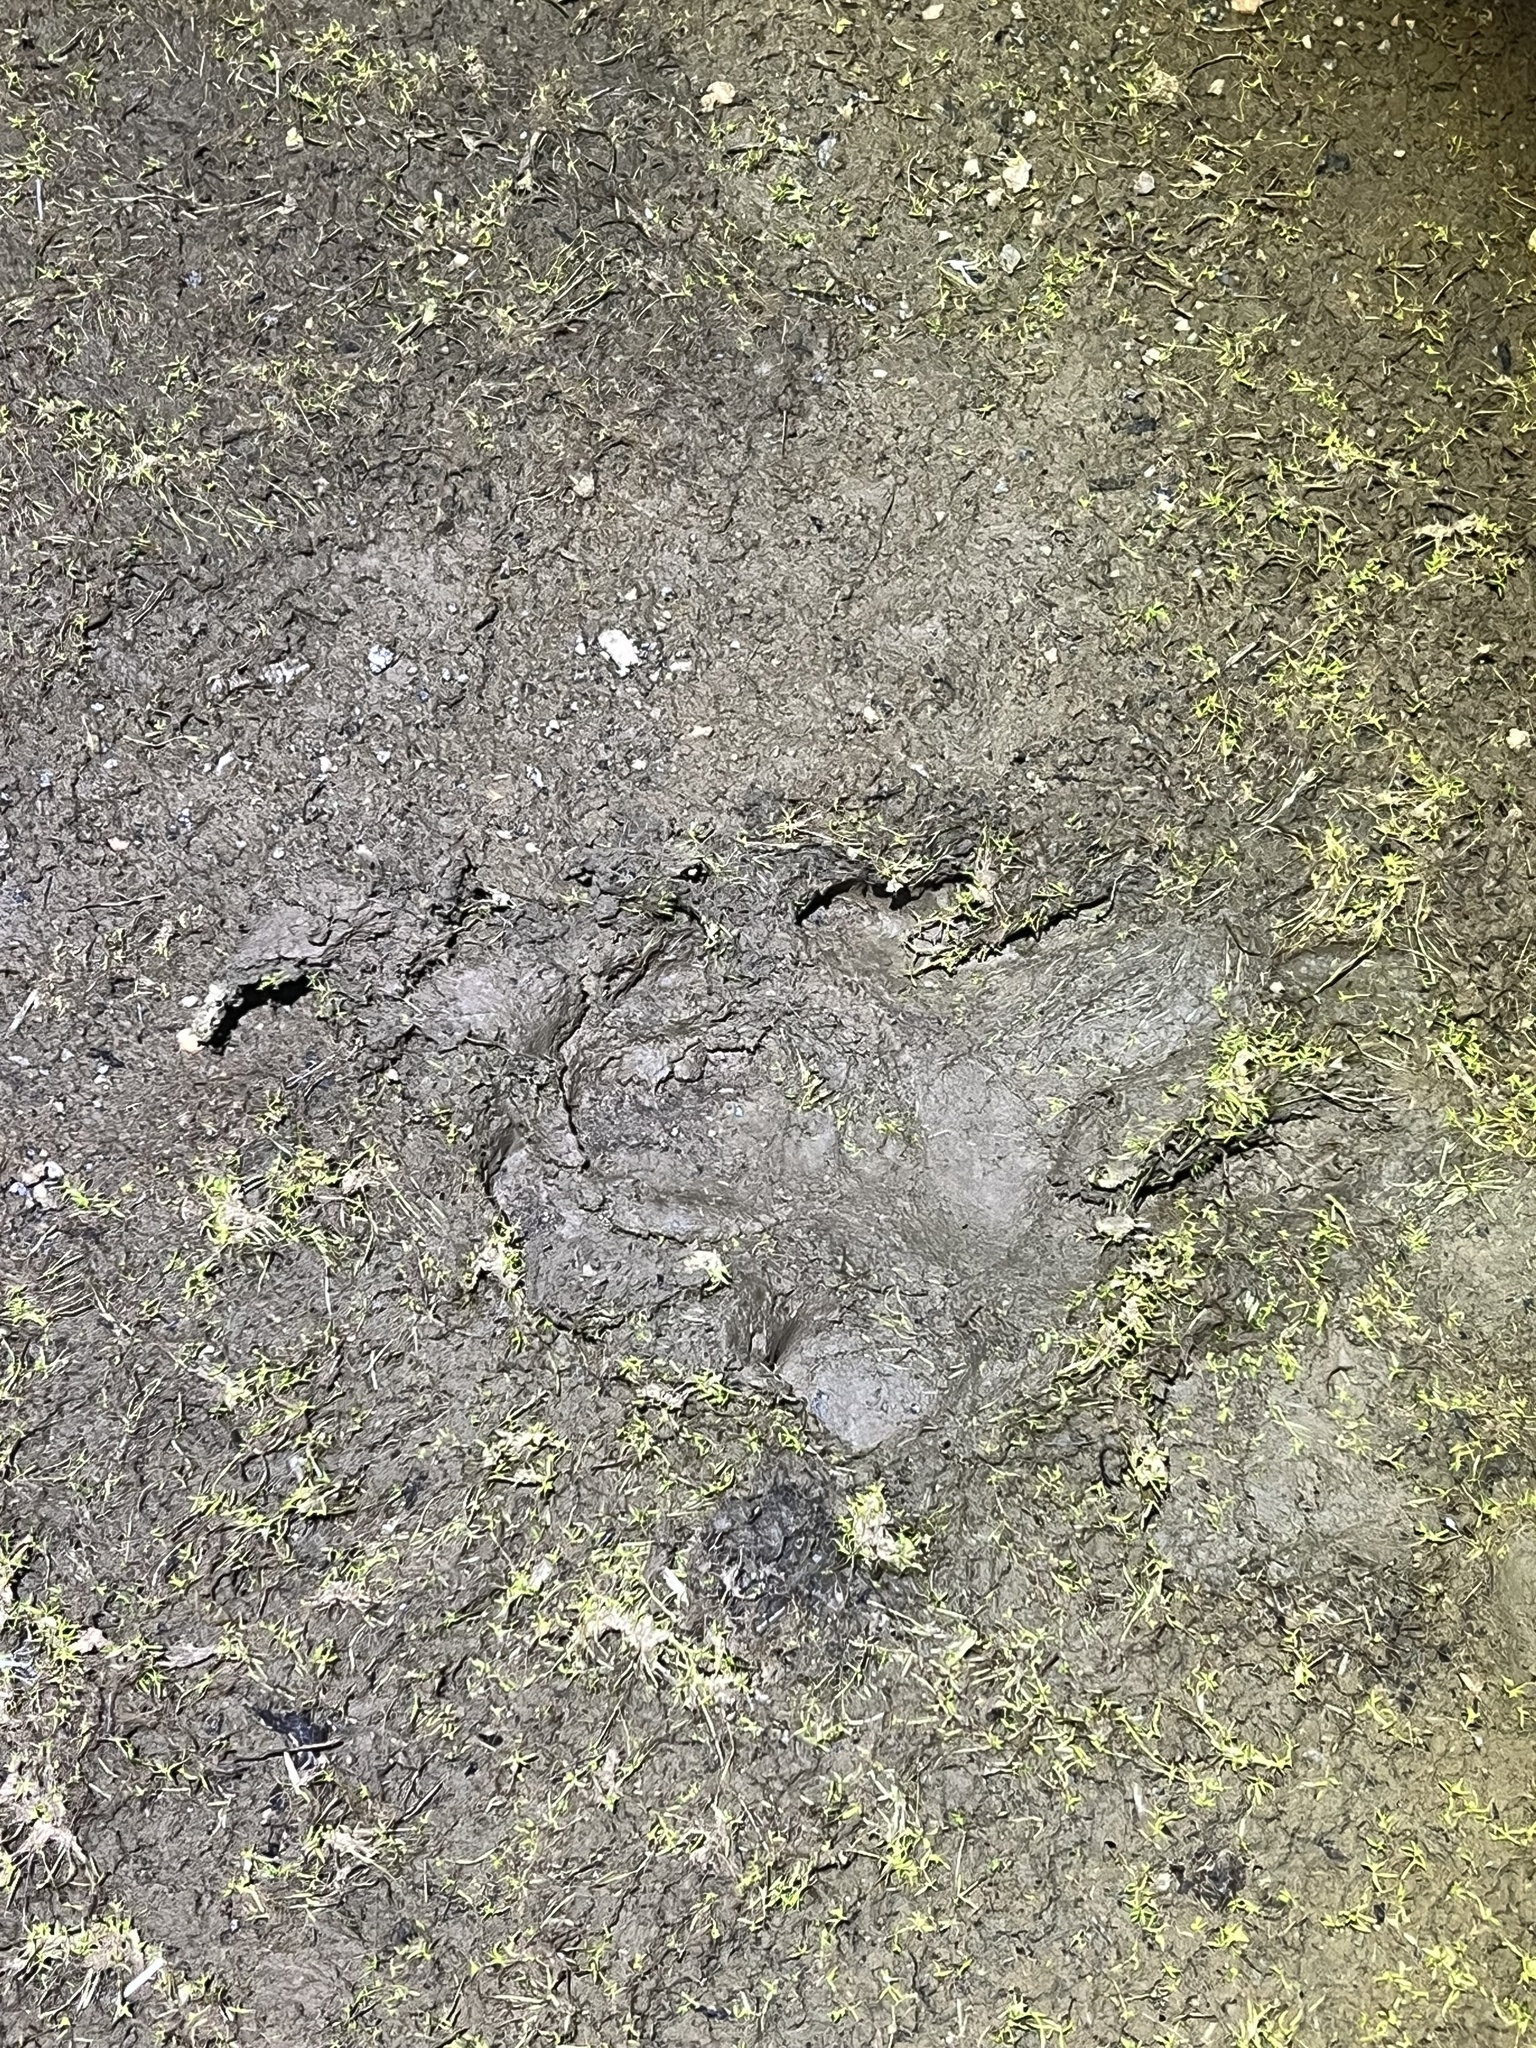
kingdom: Animalia
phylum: Chordata
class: Mammalia
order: Perissodactyla
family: Tapiridae
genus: Tapirella
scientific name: Tapirella bairdii
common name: Baird's tapir
